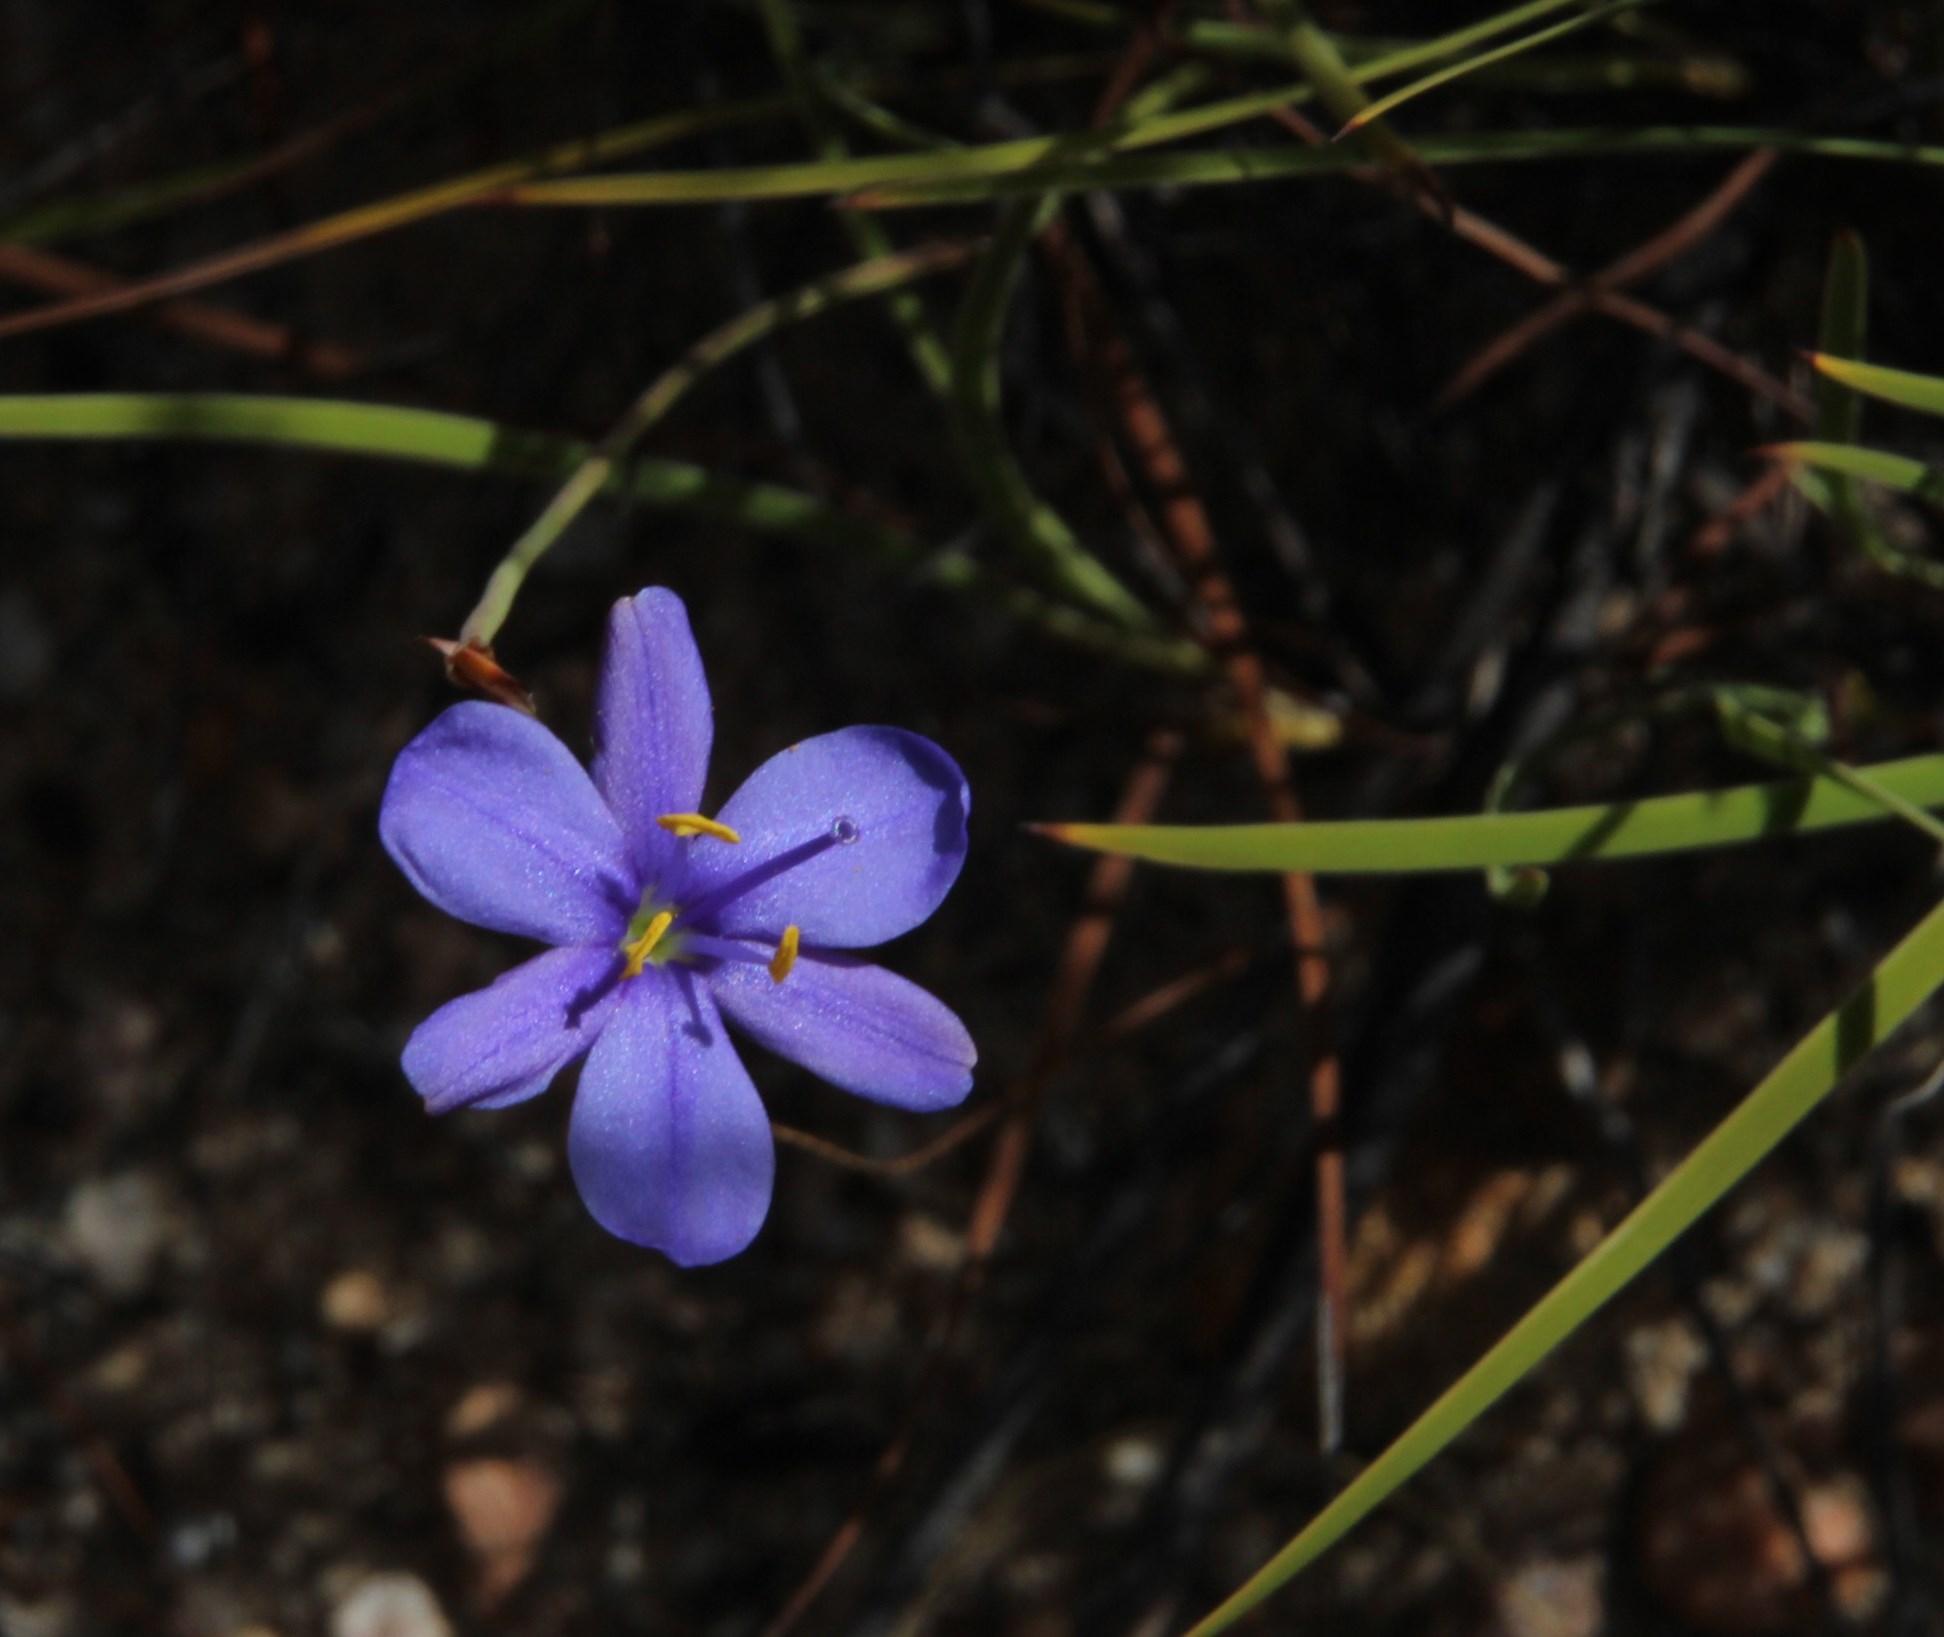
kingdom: Plantae
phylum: Tracheophyta
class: Liliopsida
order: Asparagales
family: Iridaceae
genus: Aristea
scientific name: Aristea dichotoma
